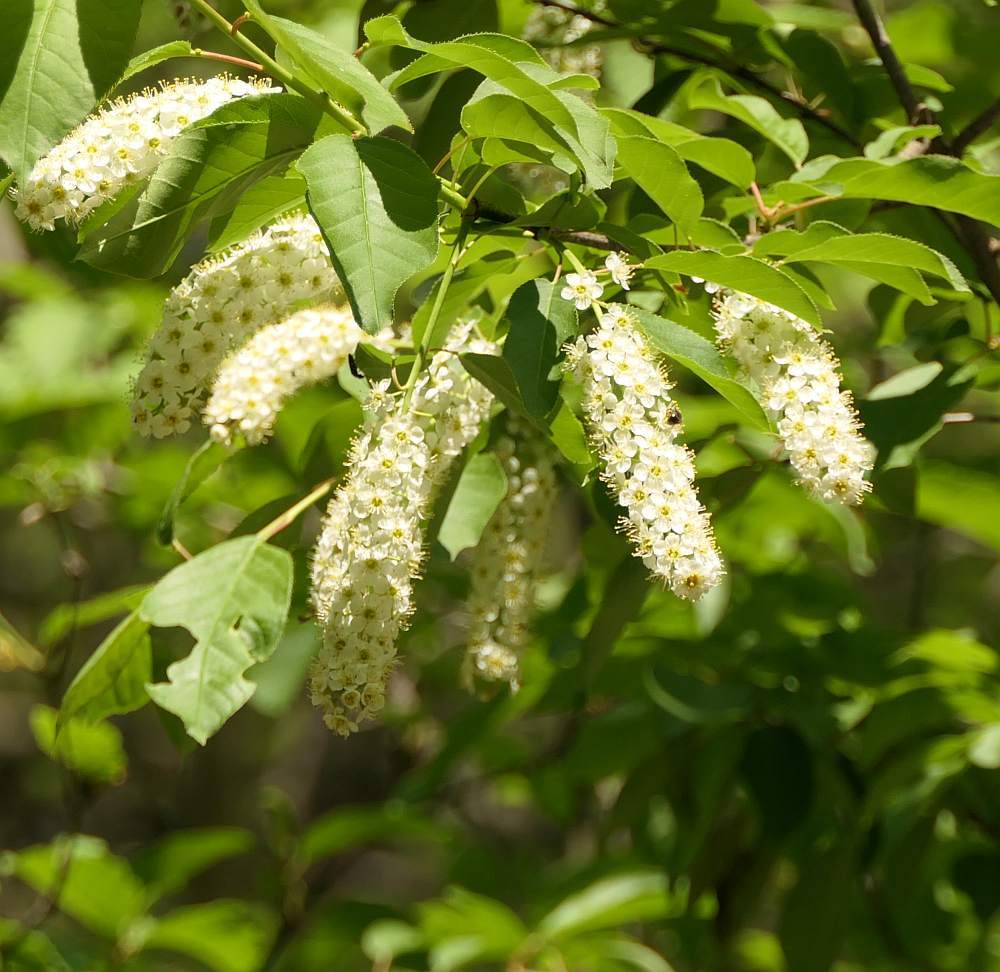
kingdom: Plantae
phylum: Tracheophyta
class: Magnoliopsida
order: Rosales
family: Rosaceae
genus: Prunus
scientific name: Prunus virginiana
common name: Chokecherry
